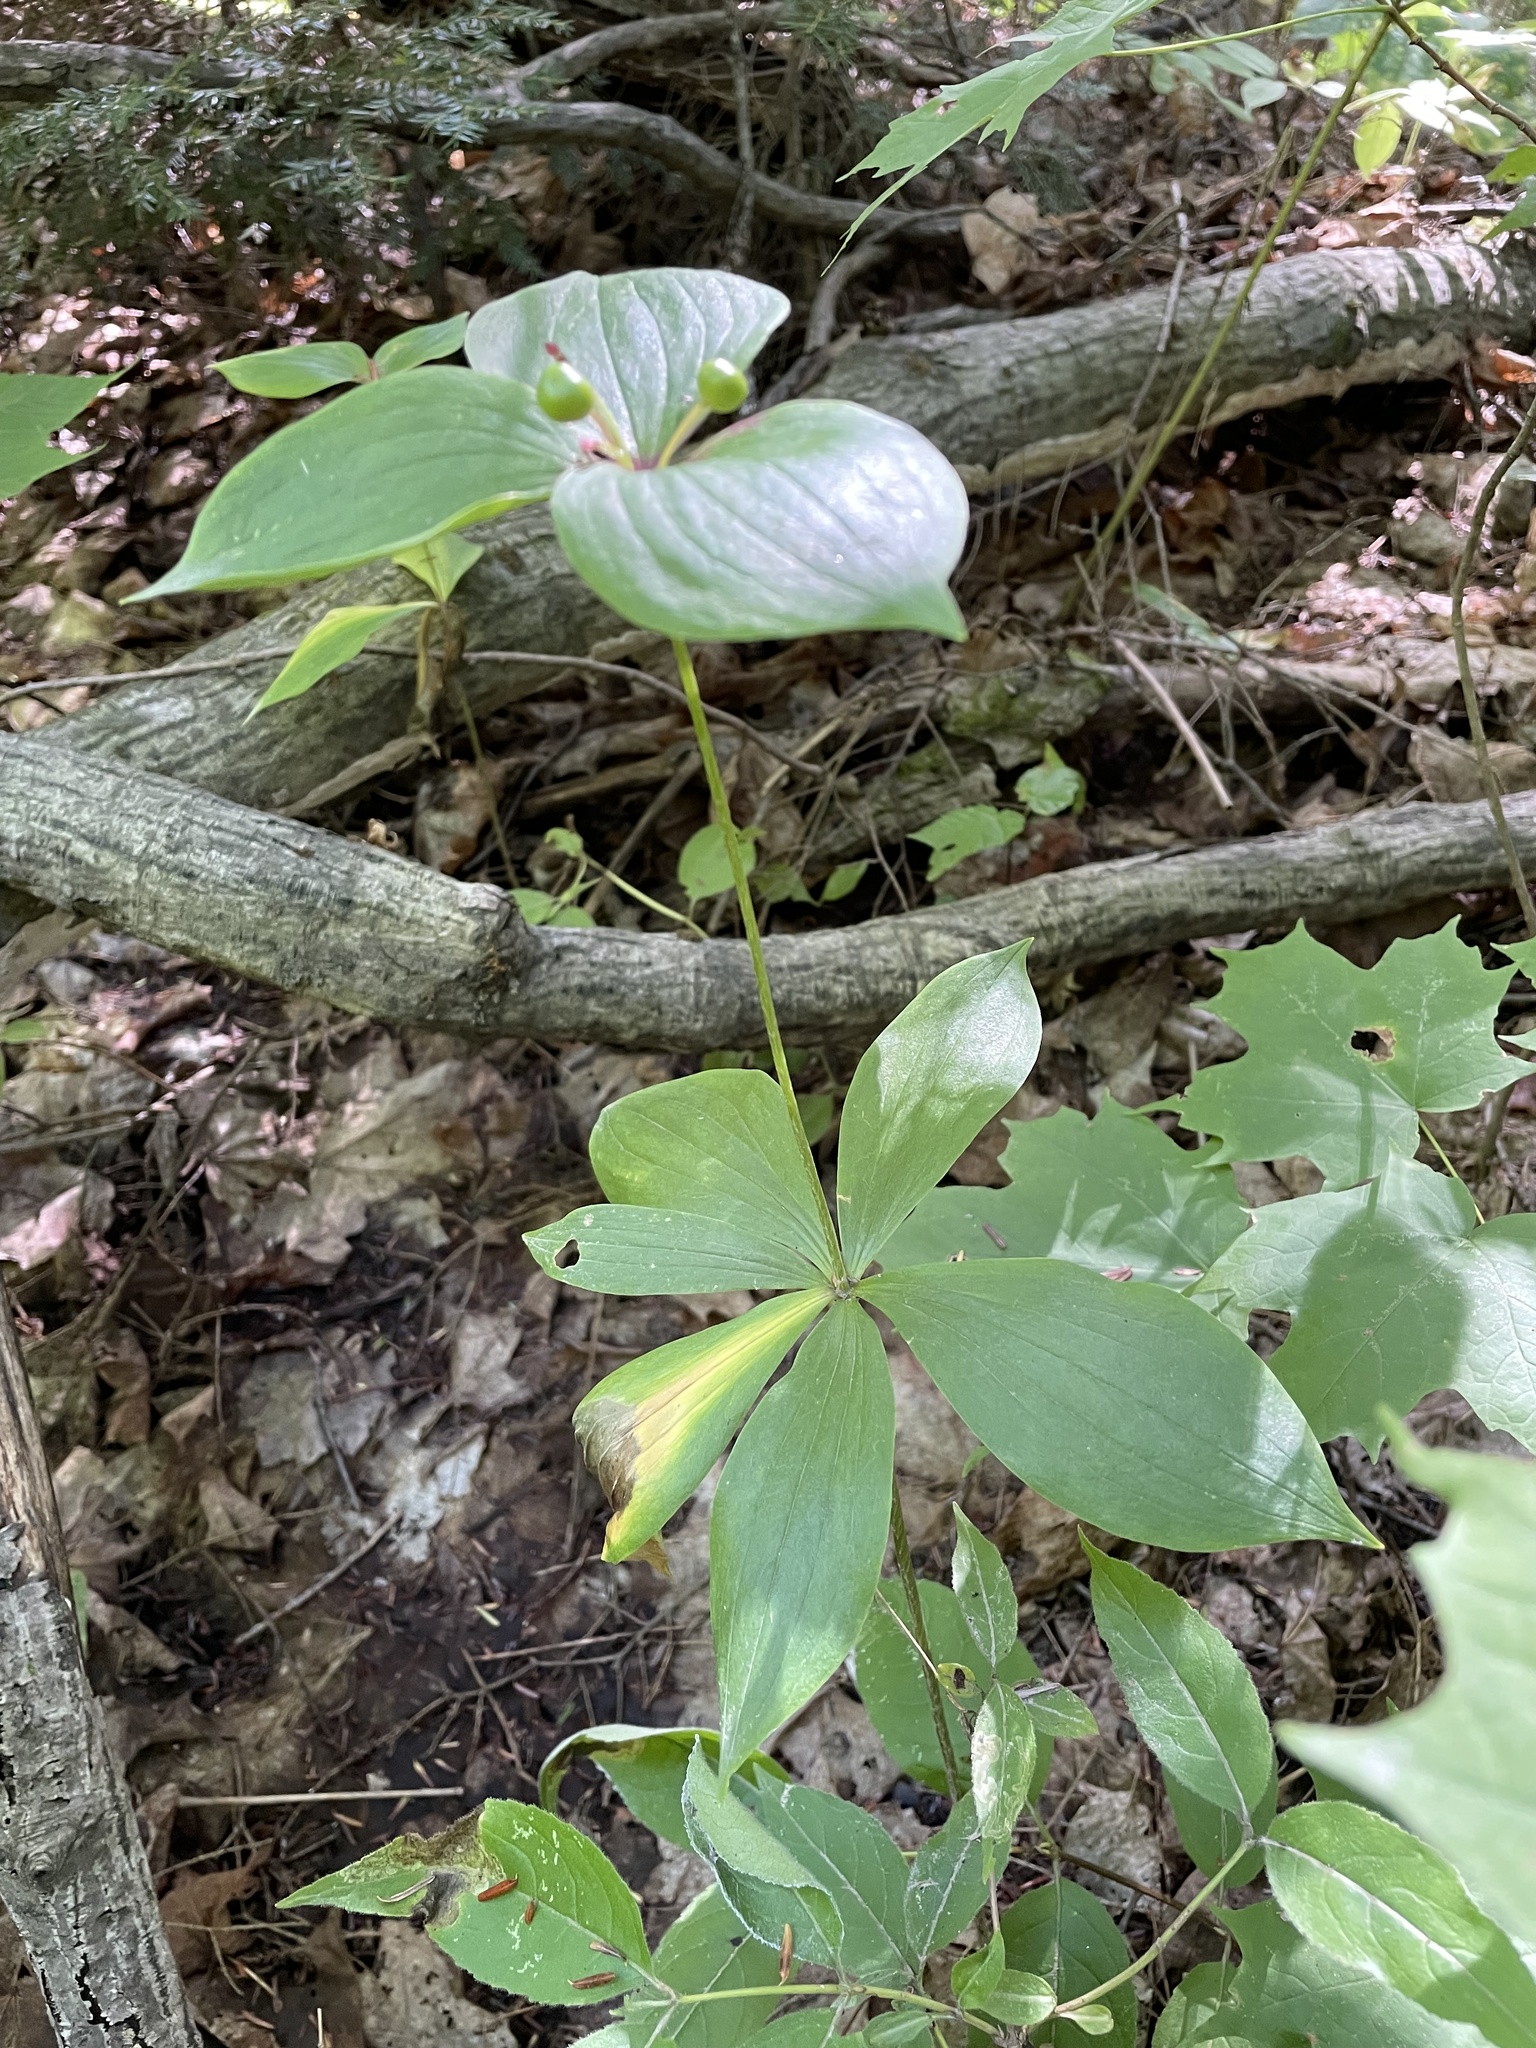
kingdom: Plantae
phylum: Tracheophyta
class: Liliopsida
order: Liliales
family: Liliaceae
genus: Medeola
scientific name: Medeola virginiana
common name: Indian cucumber-root
